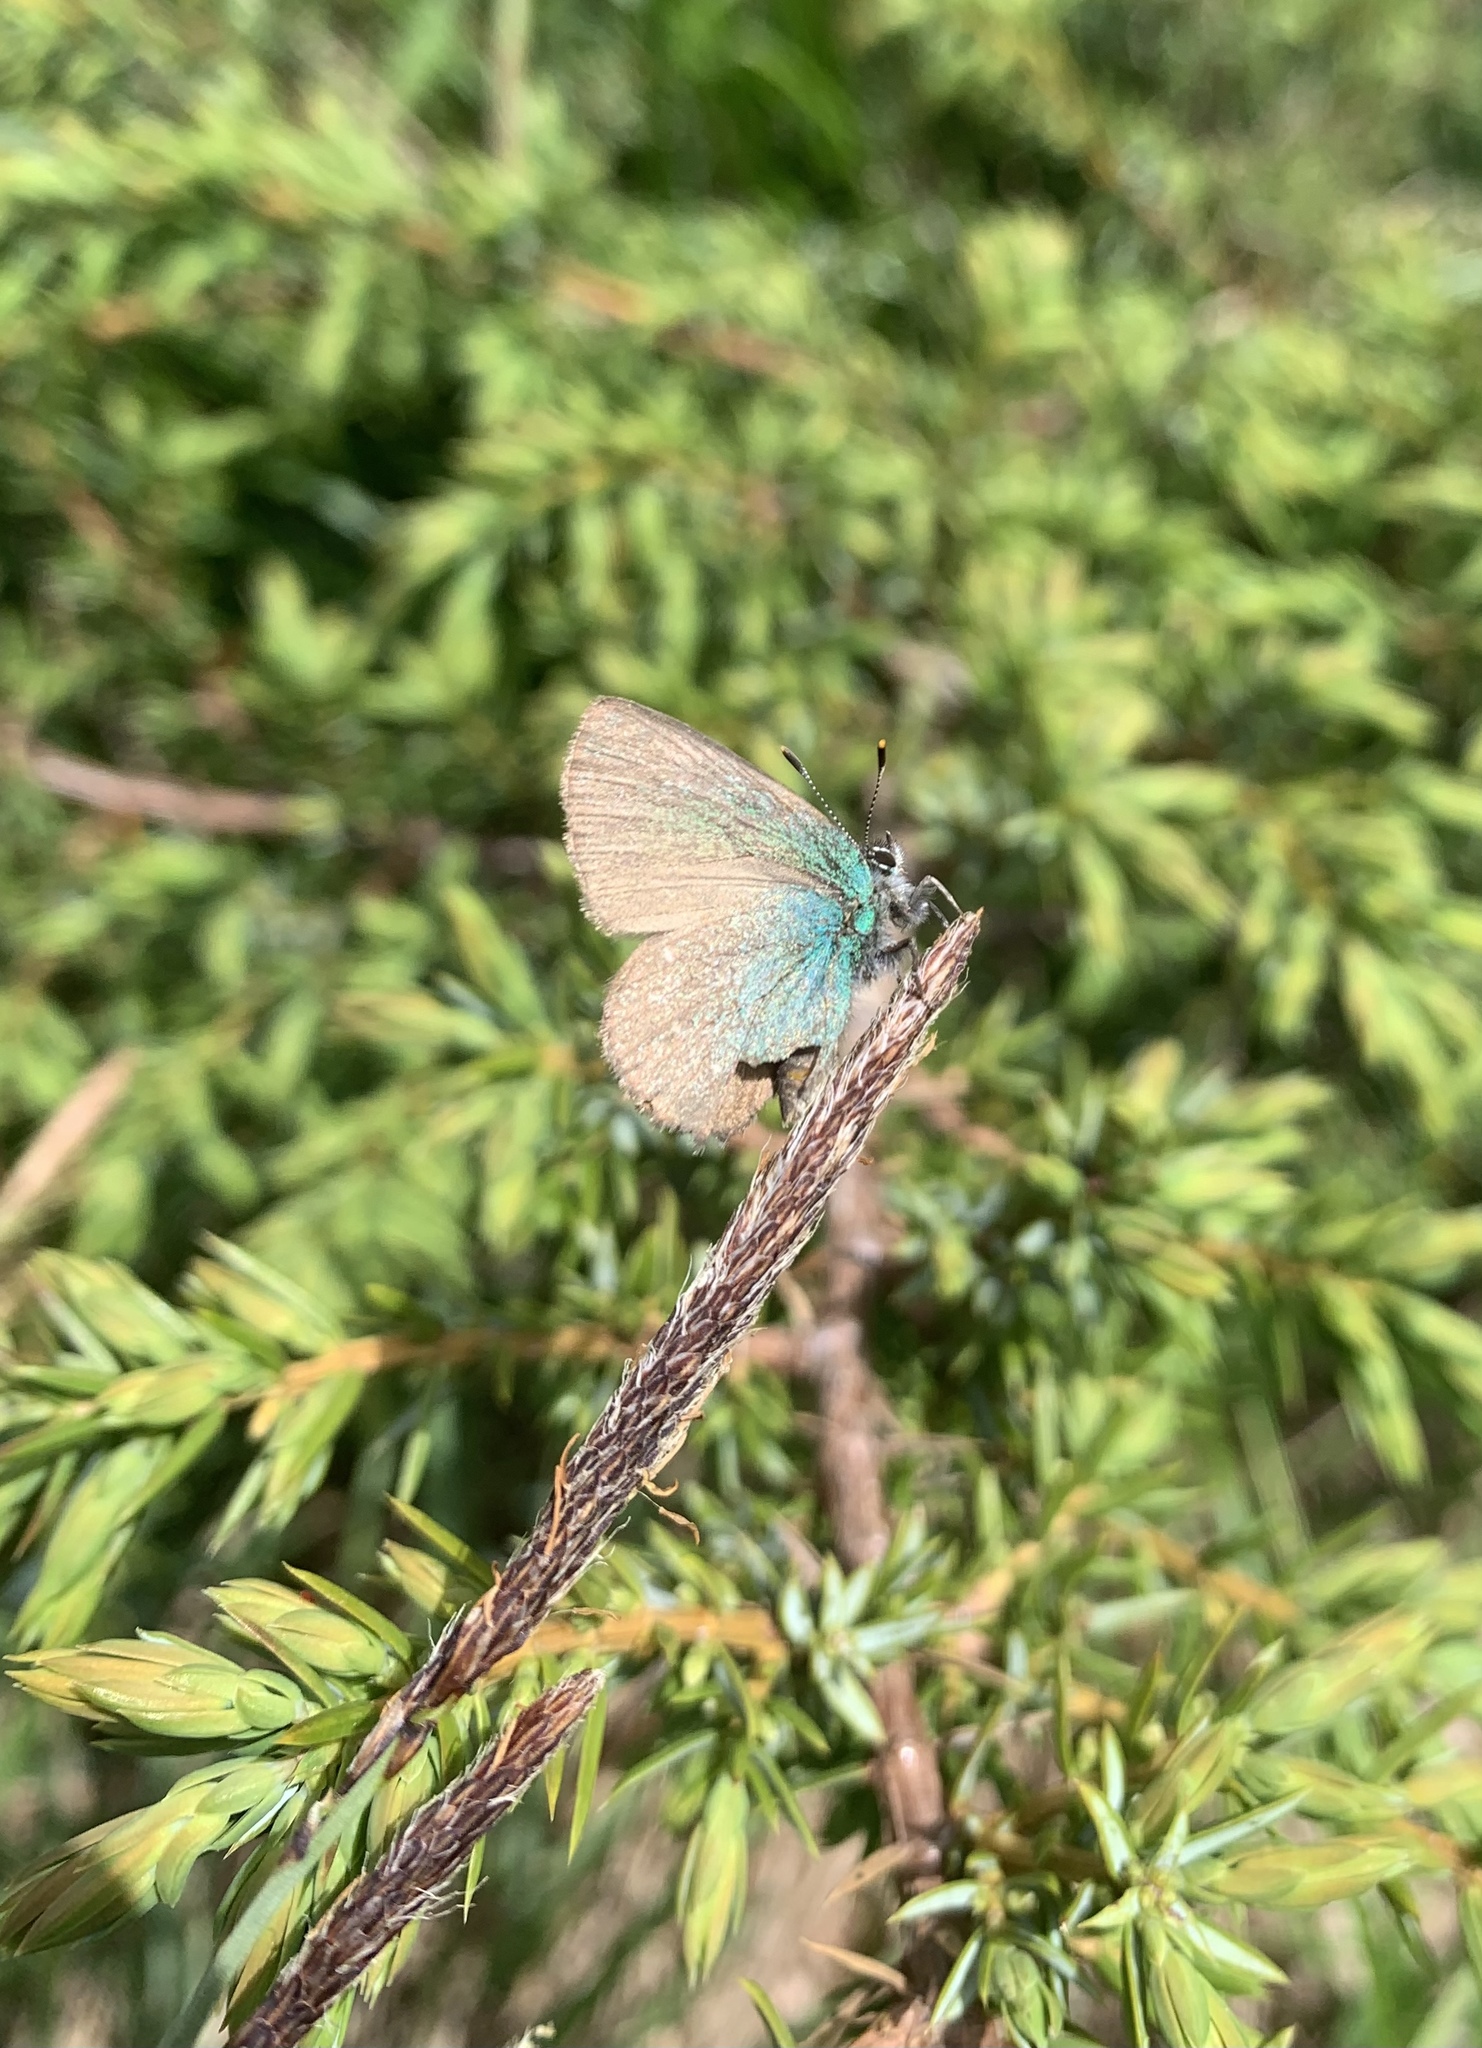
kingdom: Animalia
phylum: Arthropoda
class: Insecta
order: Lepidoptera
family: Lycaenidae
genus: Callophrys
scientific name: Callophrys rubi
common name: Green hairstreak
